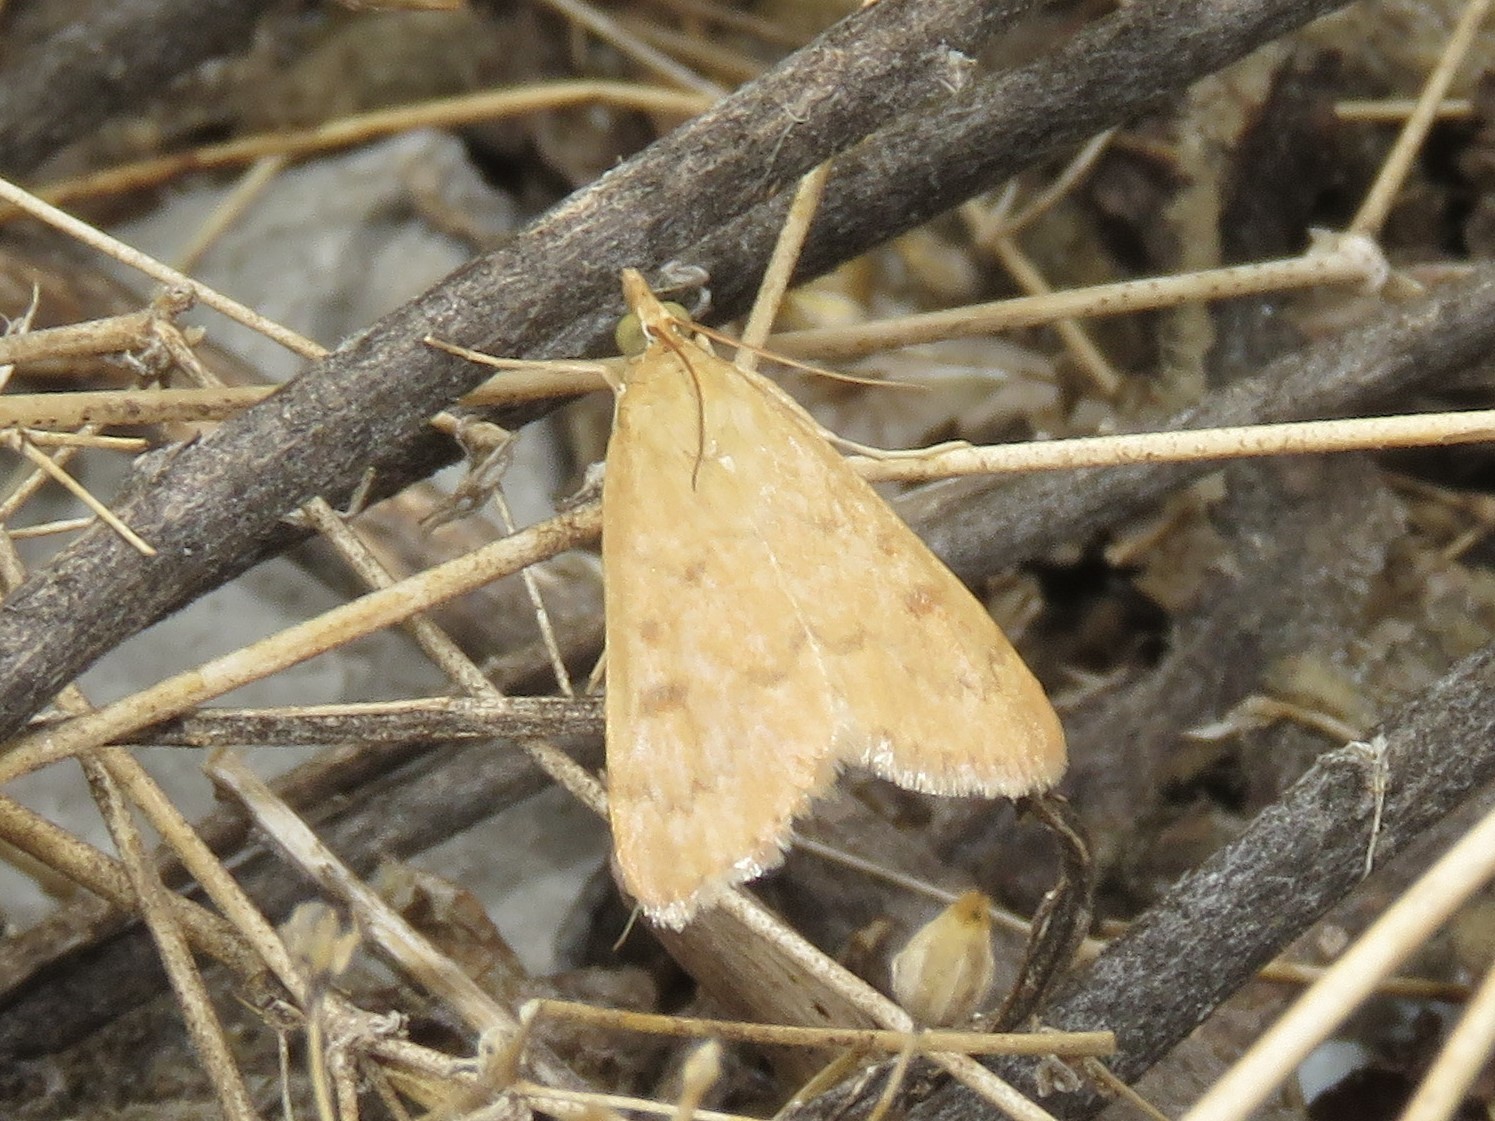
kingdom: Animalia
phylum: Arthropoda
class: Insecta
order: Lepidoptera
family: Crambidae
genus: Achyra
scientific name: Achyra rantalis
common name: Garden webworm
